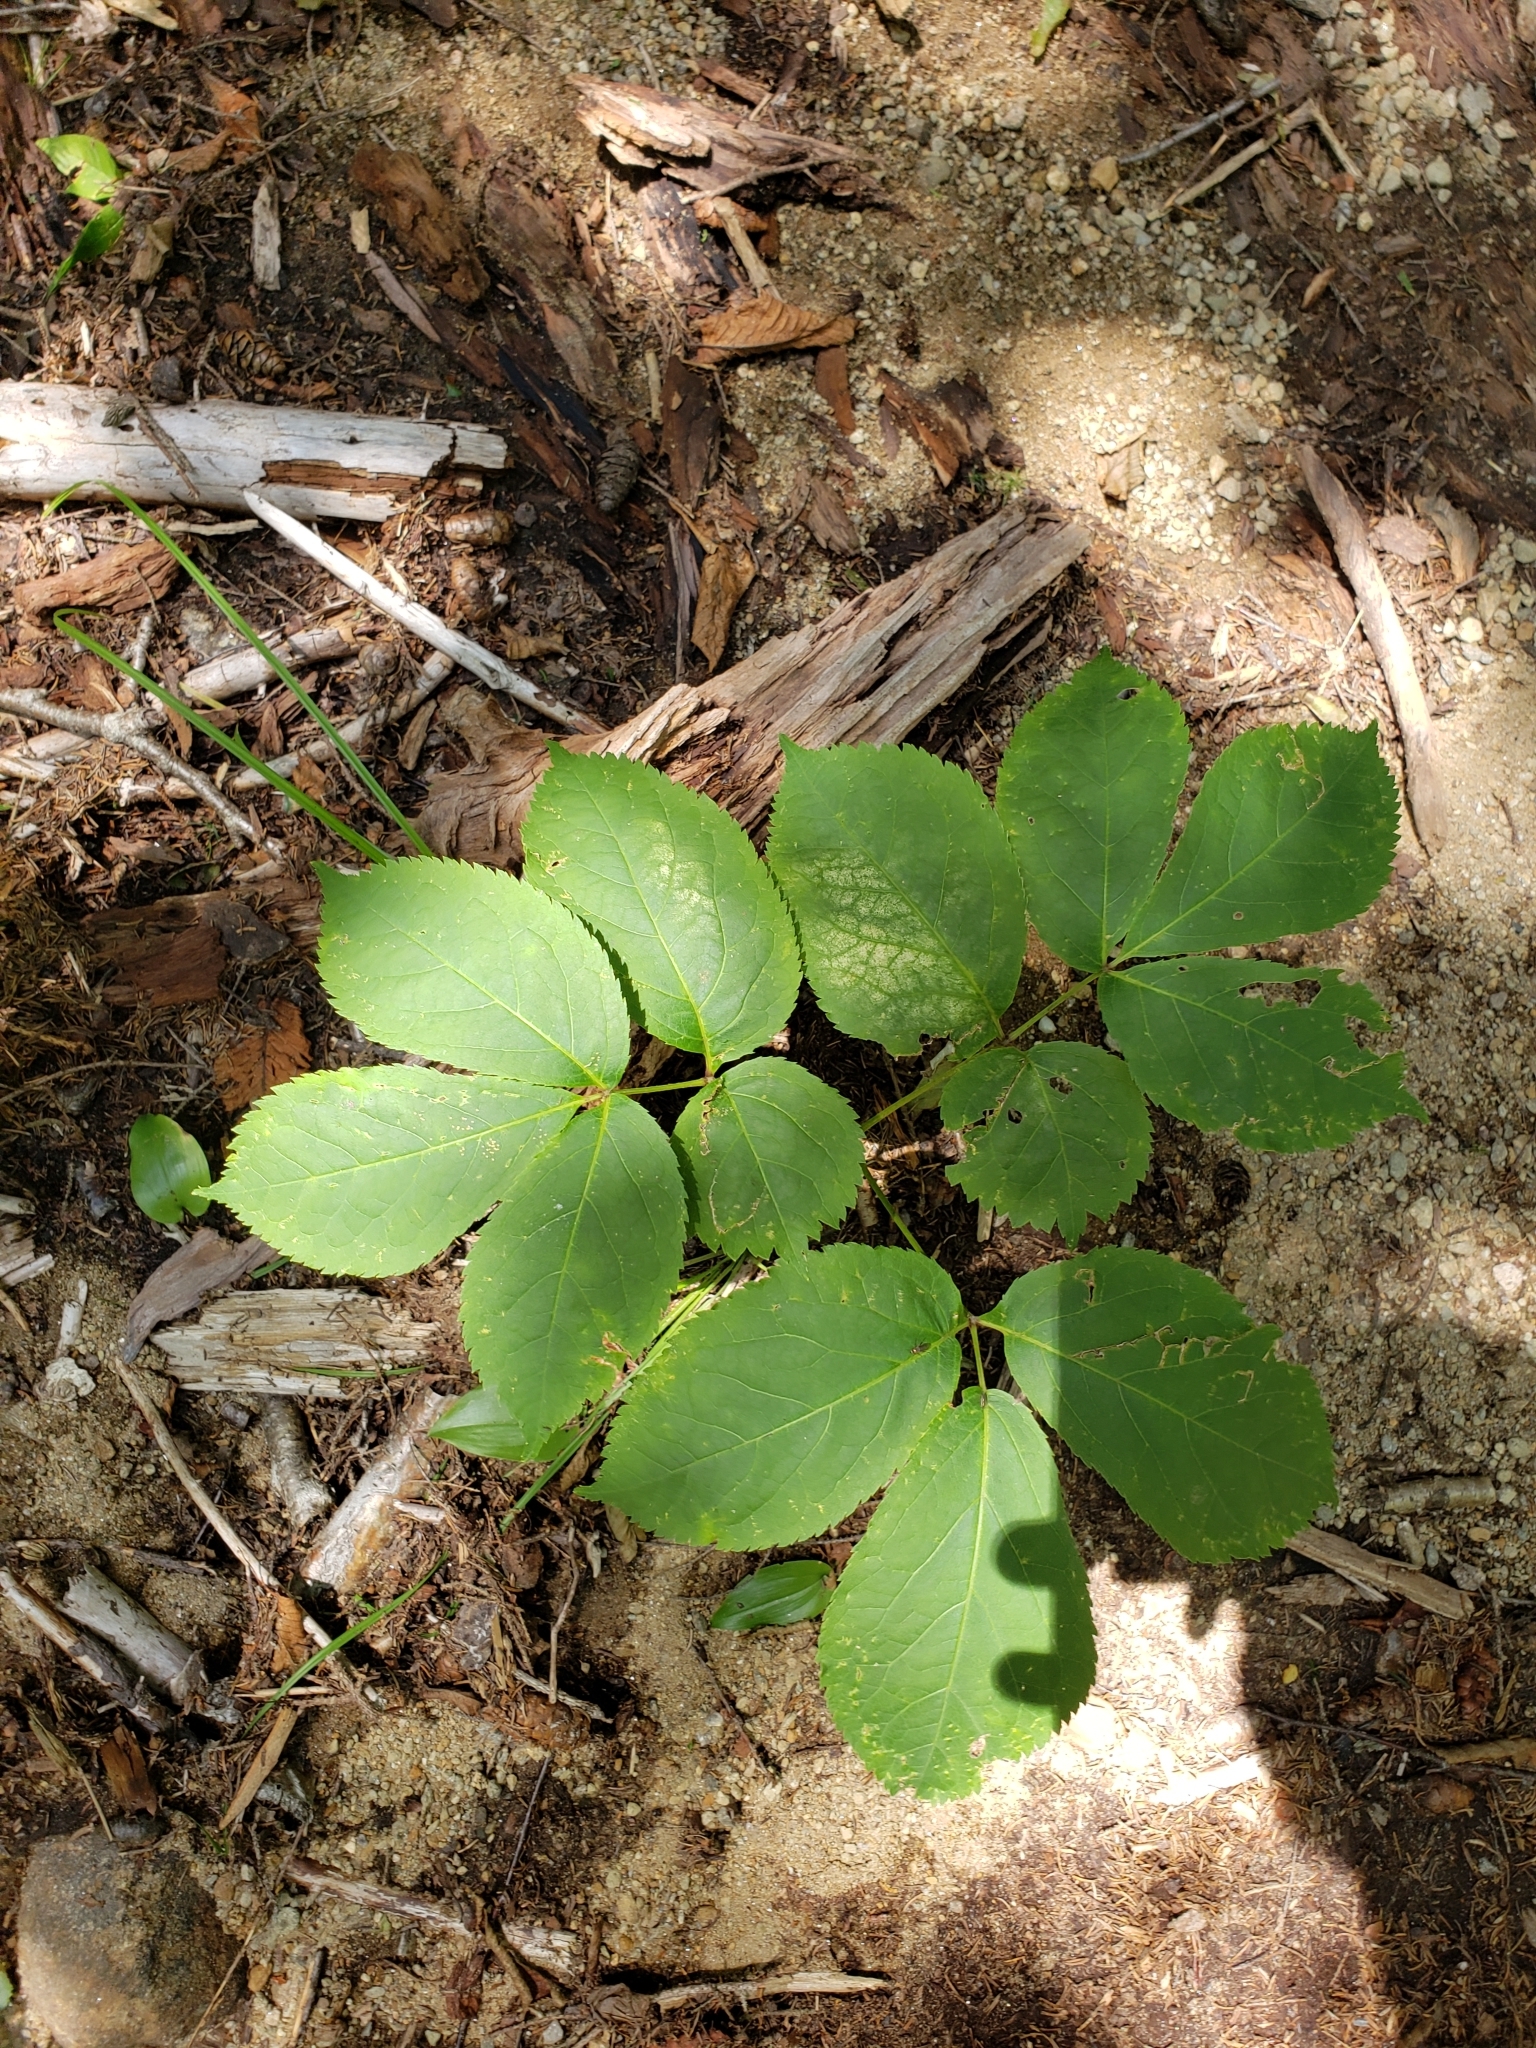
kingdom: Plantae
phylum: Tracheophyta
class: Magnoliopsida
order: Apiales
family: Araliaceae
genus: Aralia
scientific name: Aralia nudicaulis
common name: Wild sarsaparilla
